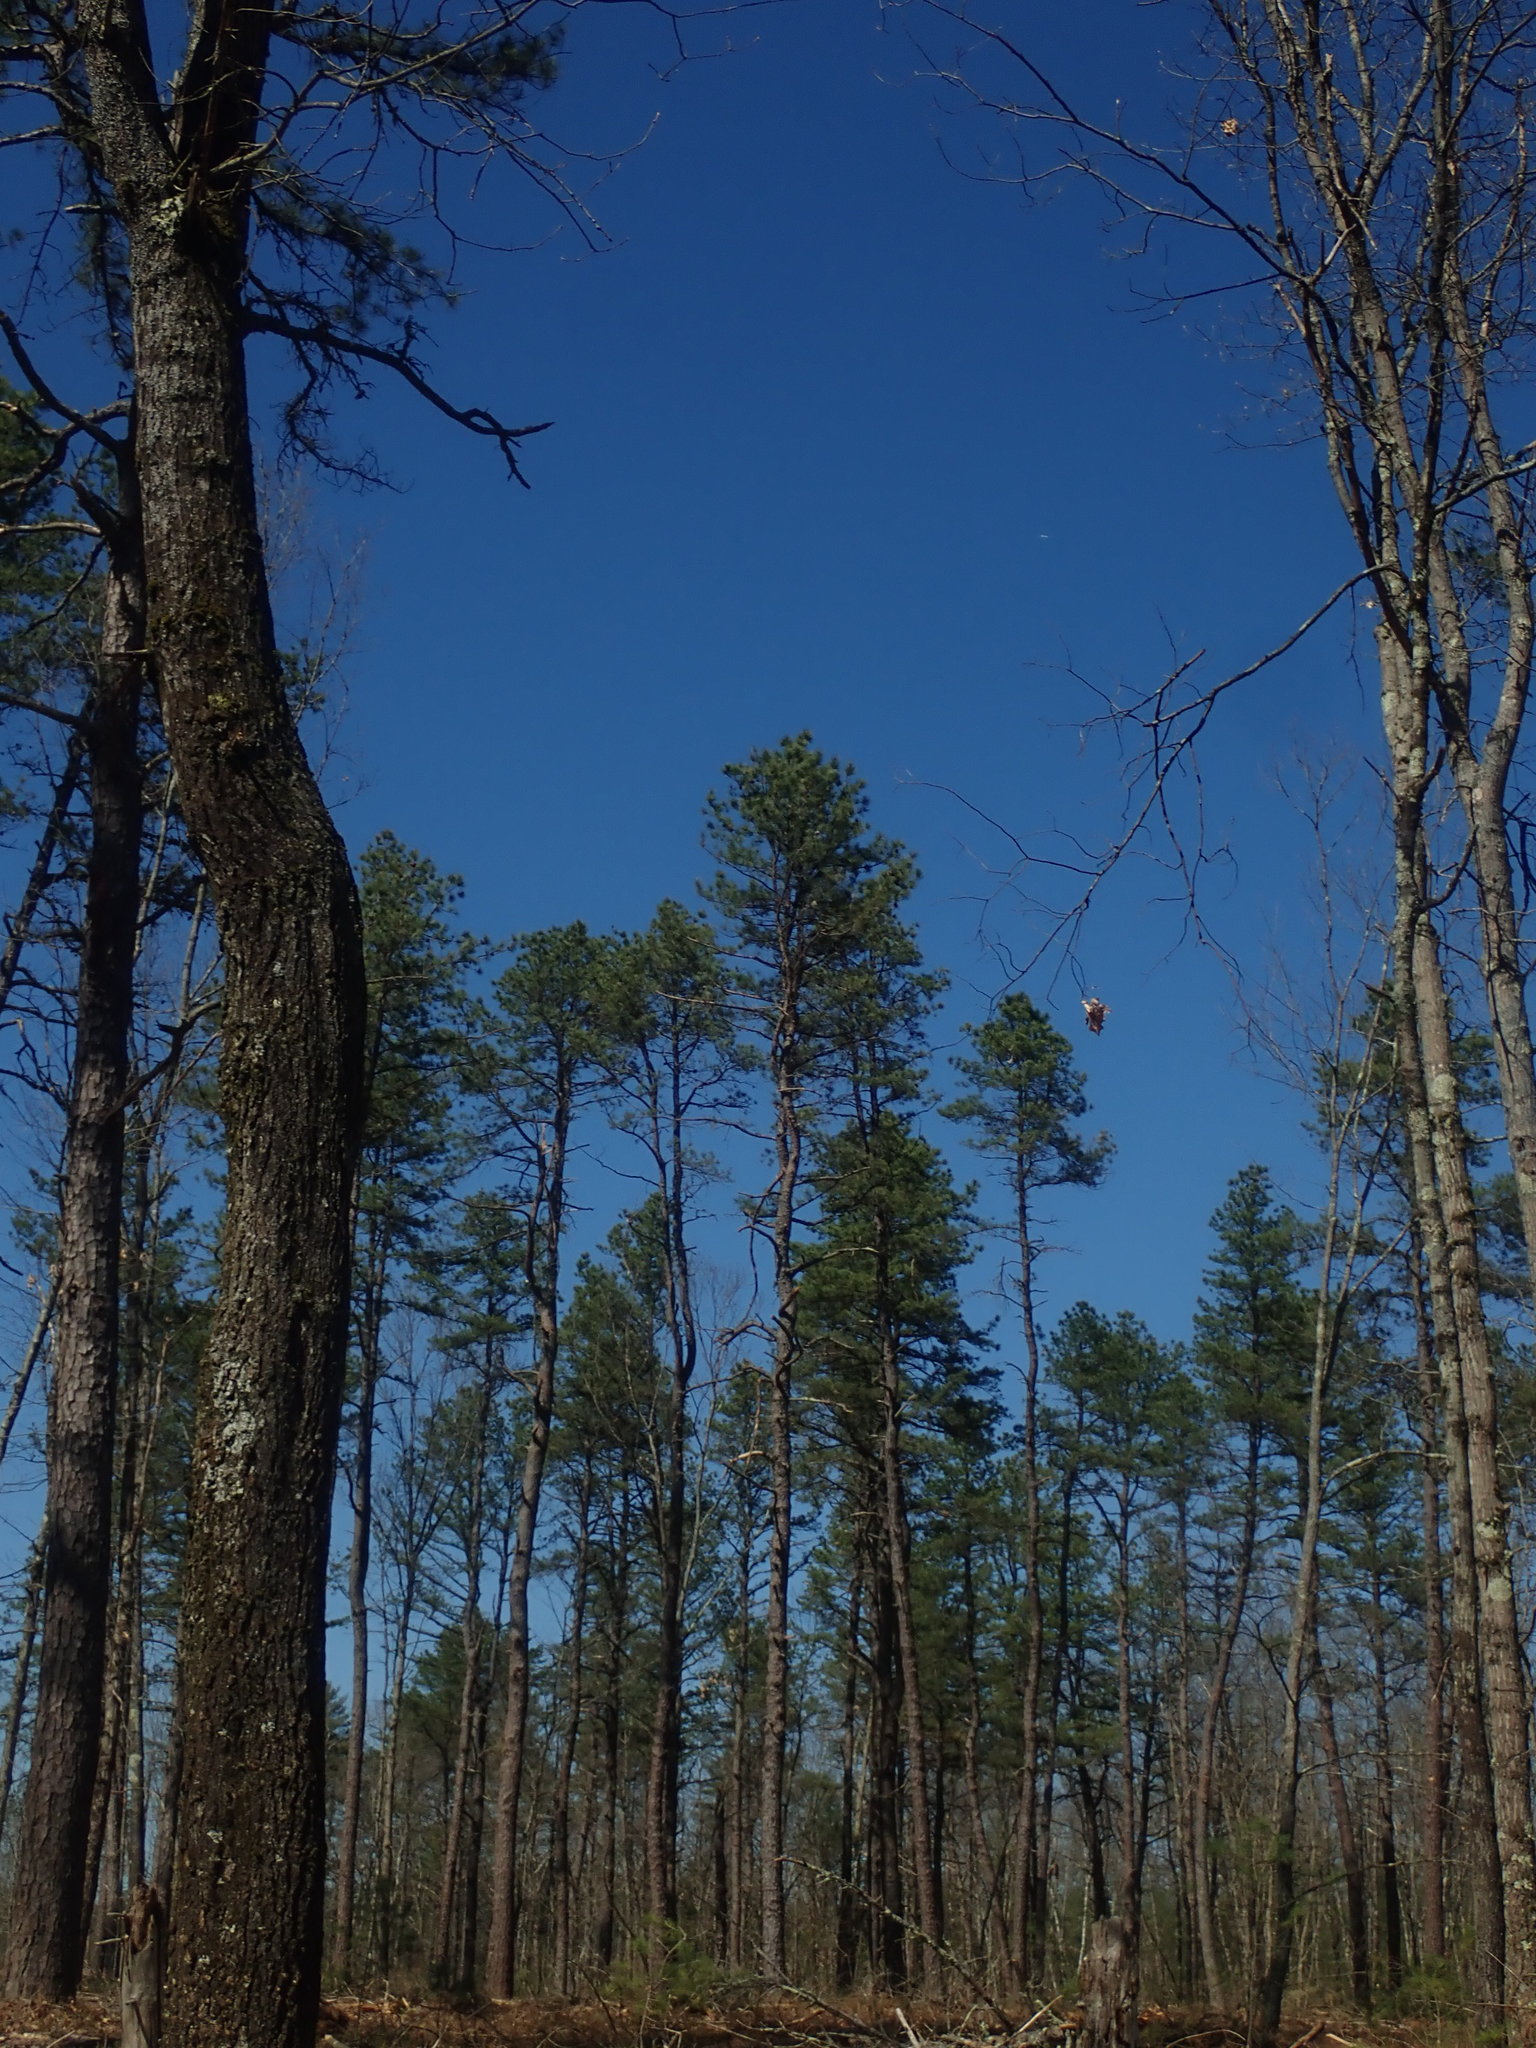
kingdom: Plantae
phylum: Tracheophyta
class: Pinopsida
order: Pinales
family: Pinaceae
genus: Pinus
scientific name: Pinus rigida
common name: Pitch pine
